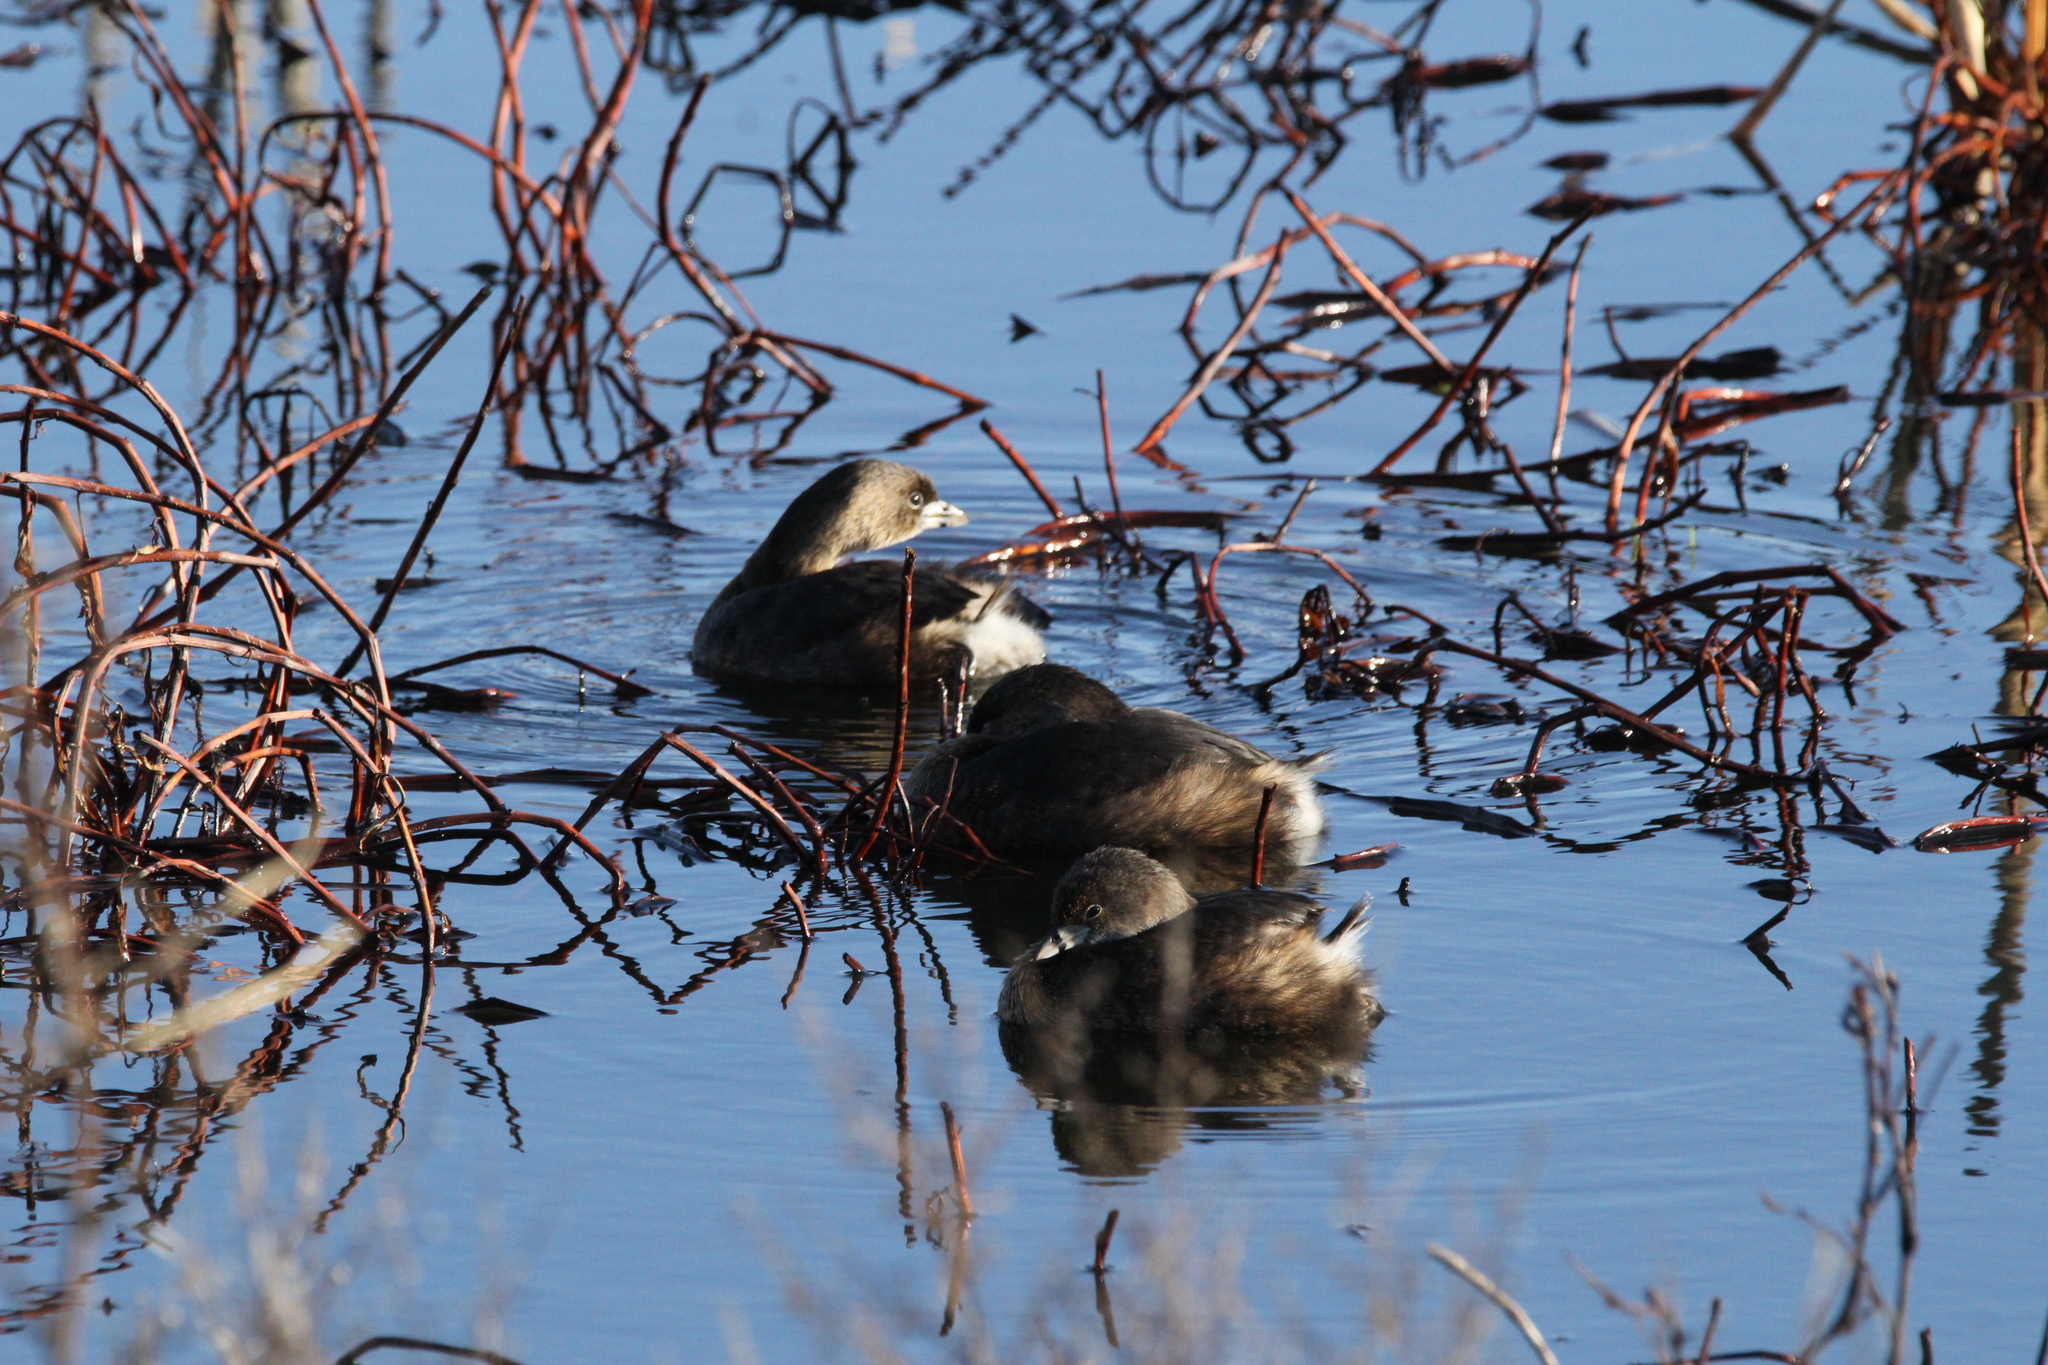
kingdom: Animalia
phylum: Chordata
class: Aves
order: Podicipediformes
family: Podicipedidae
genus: Podilymbus
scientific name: Podilymbus podiceps
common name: Pied-billed grebe
